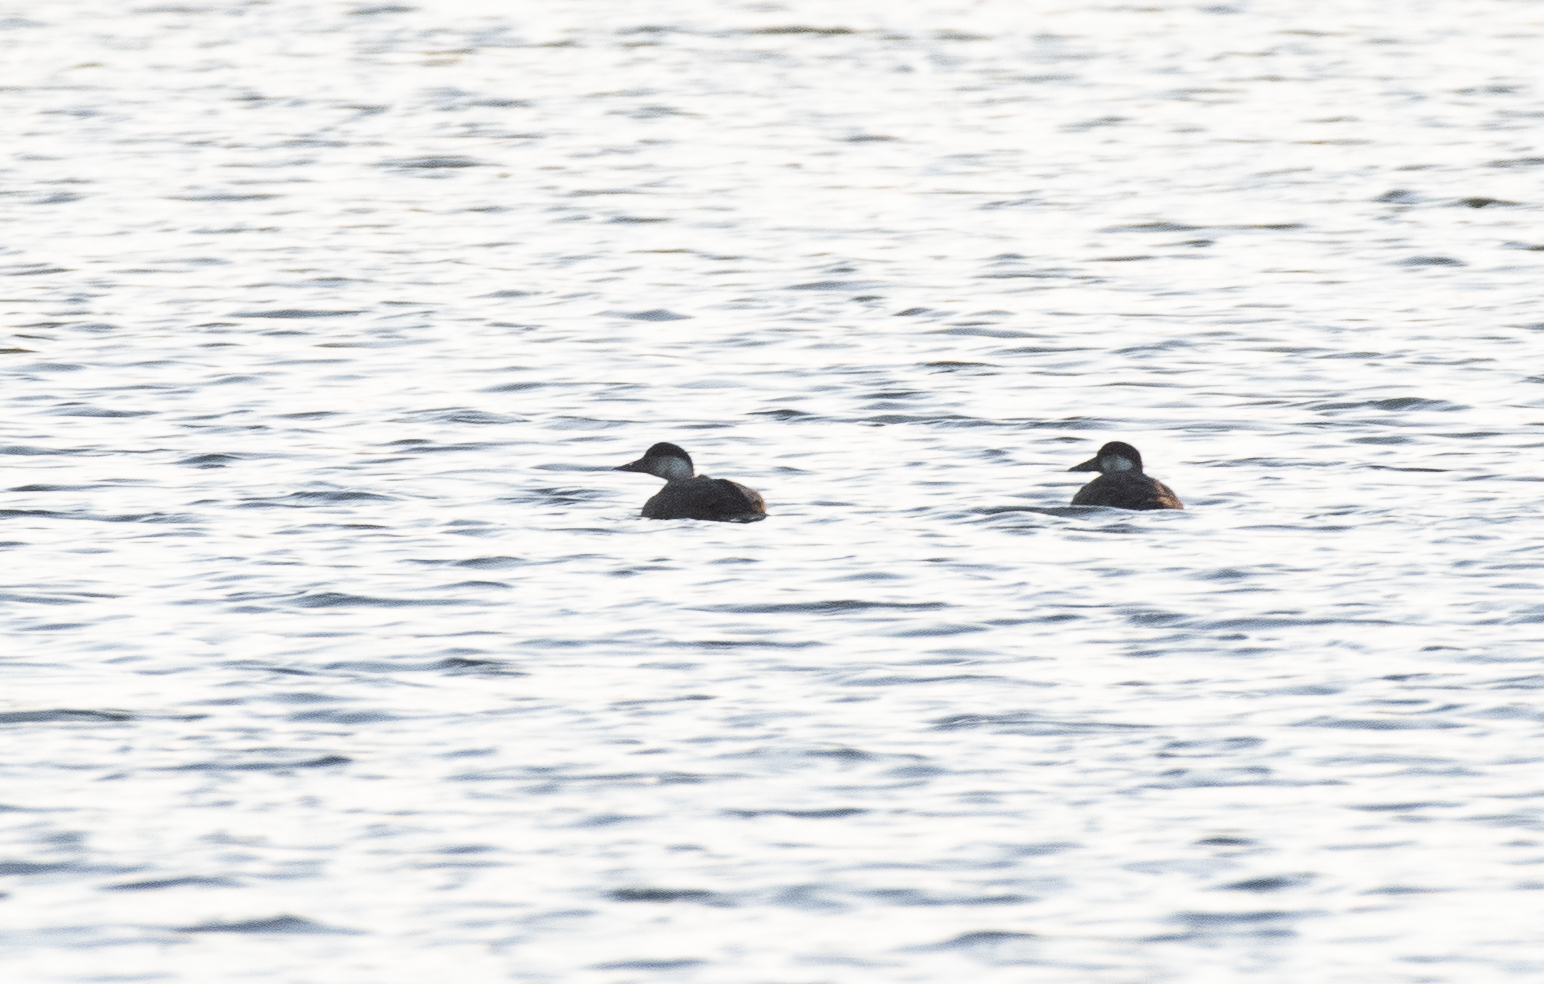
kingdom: Animalia
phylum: Chordata
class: Aves
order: Anseriformes
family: Anatidae
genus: Melanitta
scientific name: Melanitta nigra
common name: Common scoter
